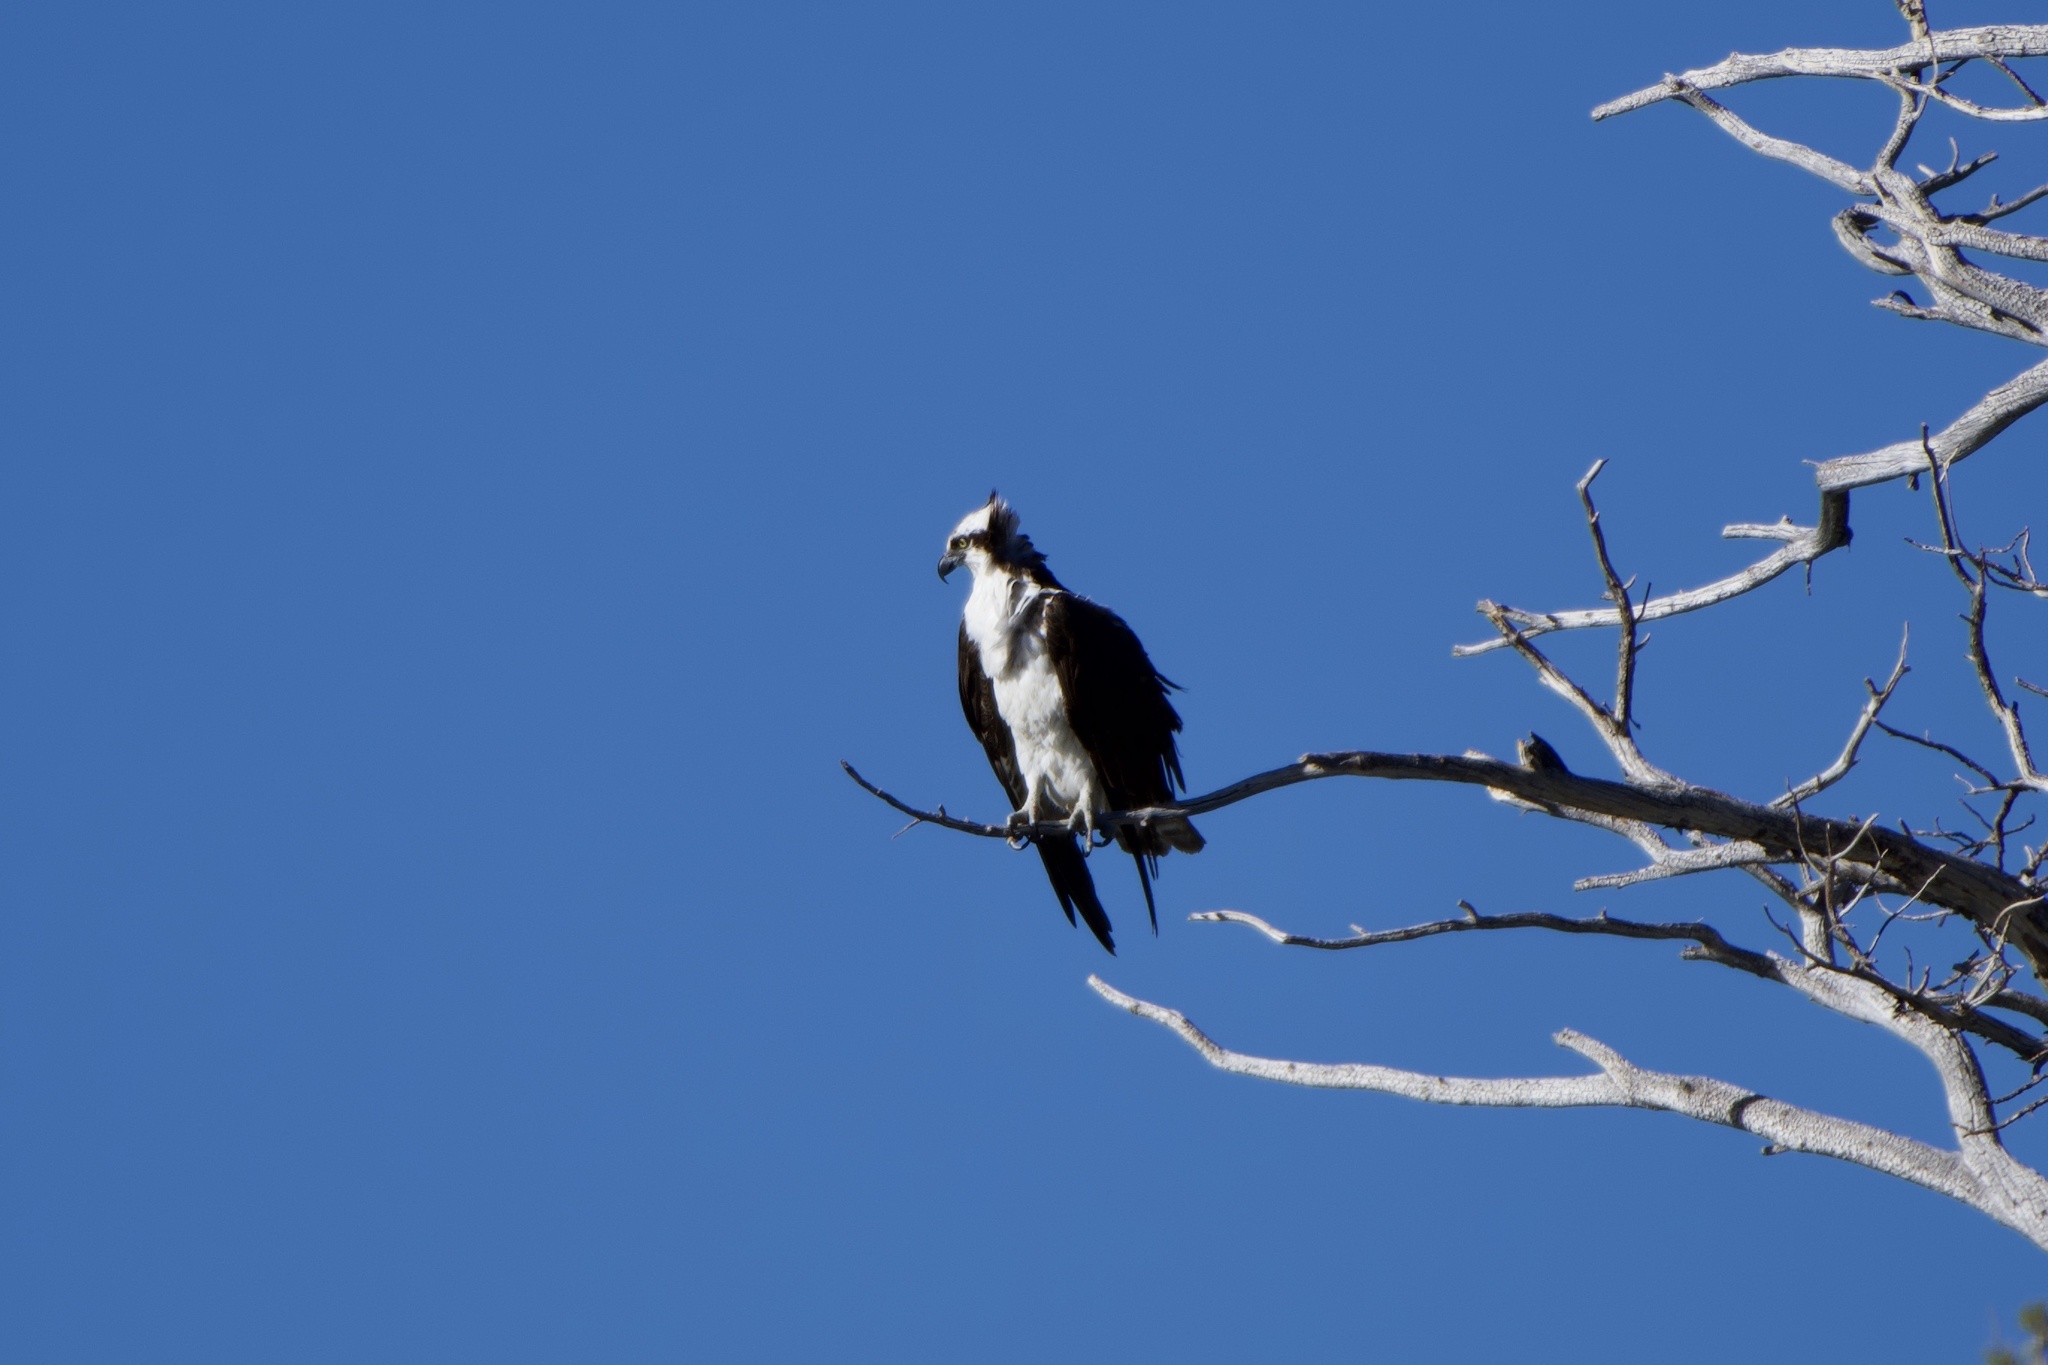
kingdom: Animalia
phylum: Chordata
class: Aves
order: Accipitriformes
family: Pandionidae
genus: Pandion
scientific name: Pandion haliaetus
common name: Osprey
